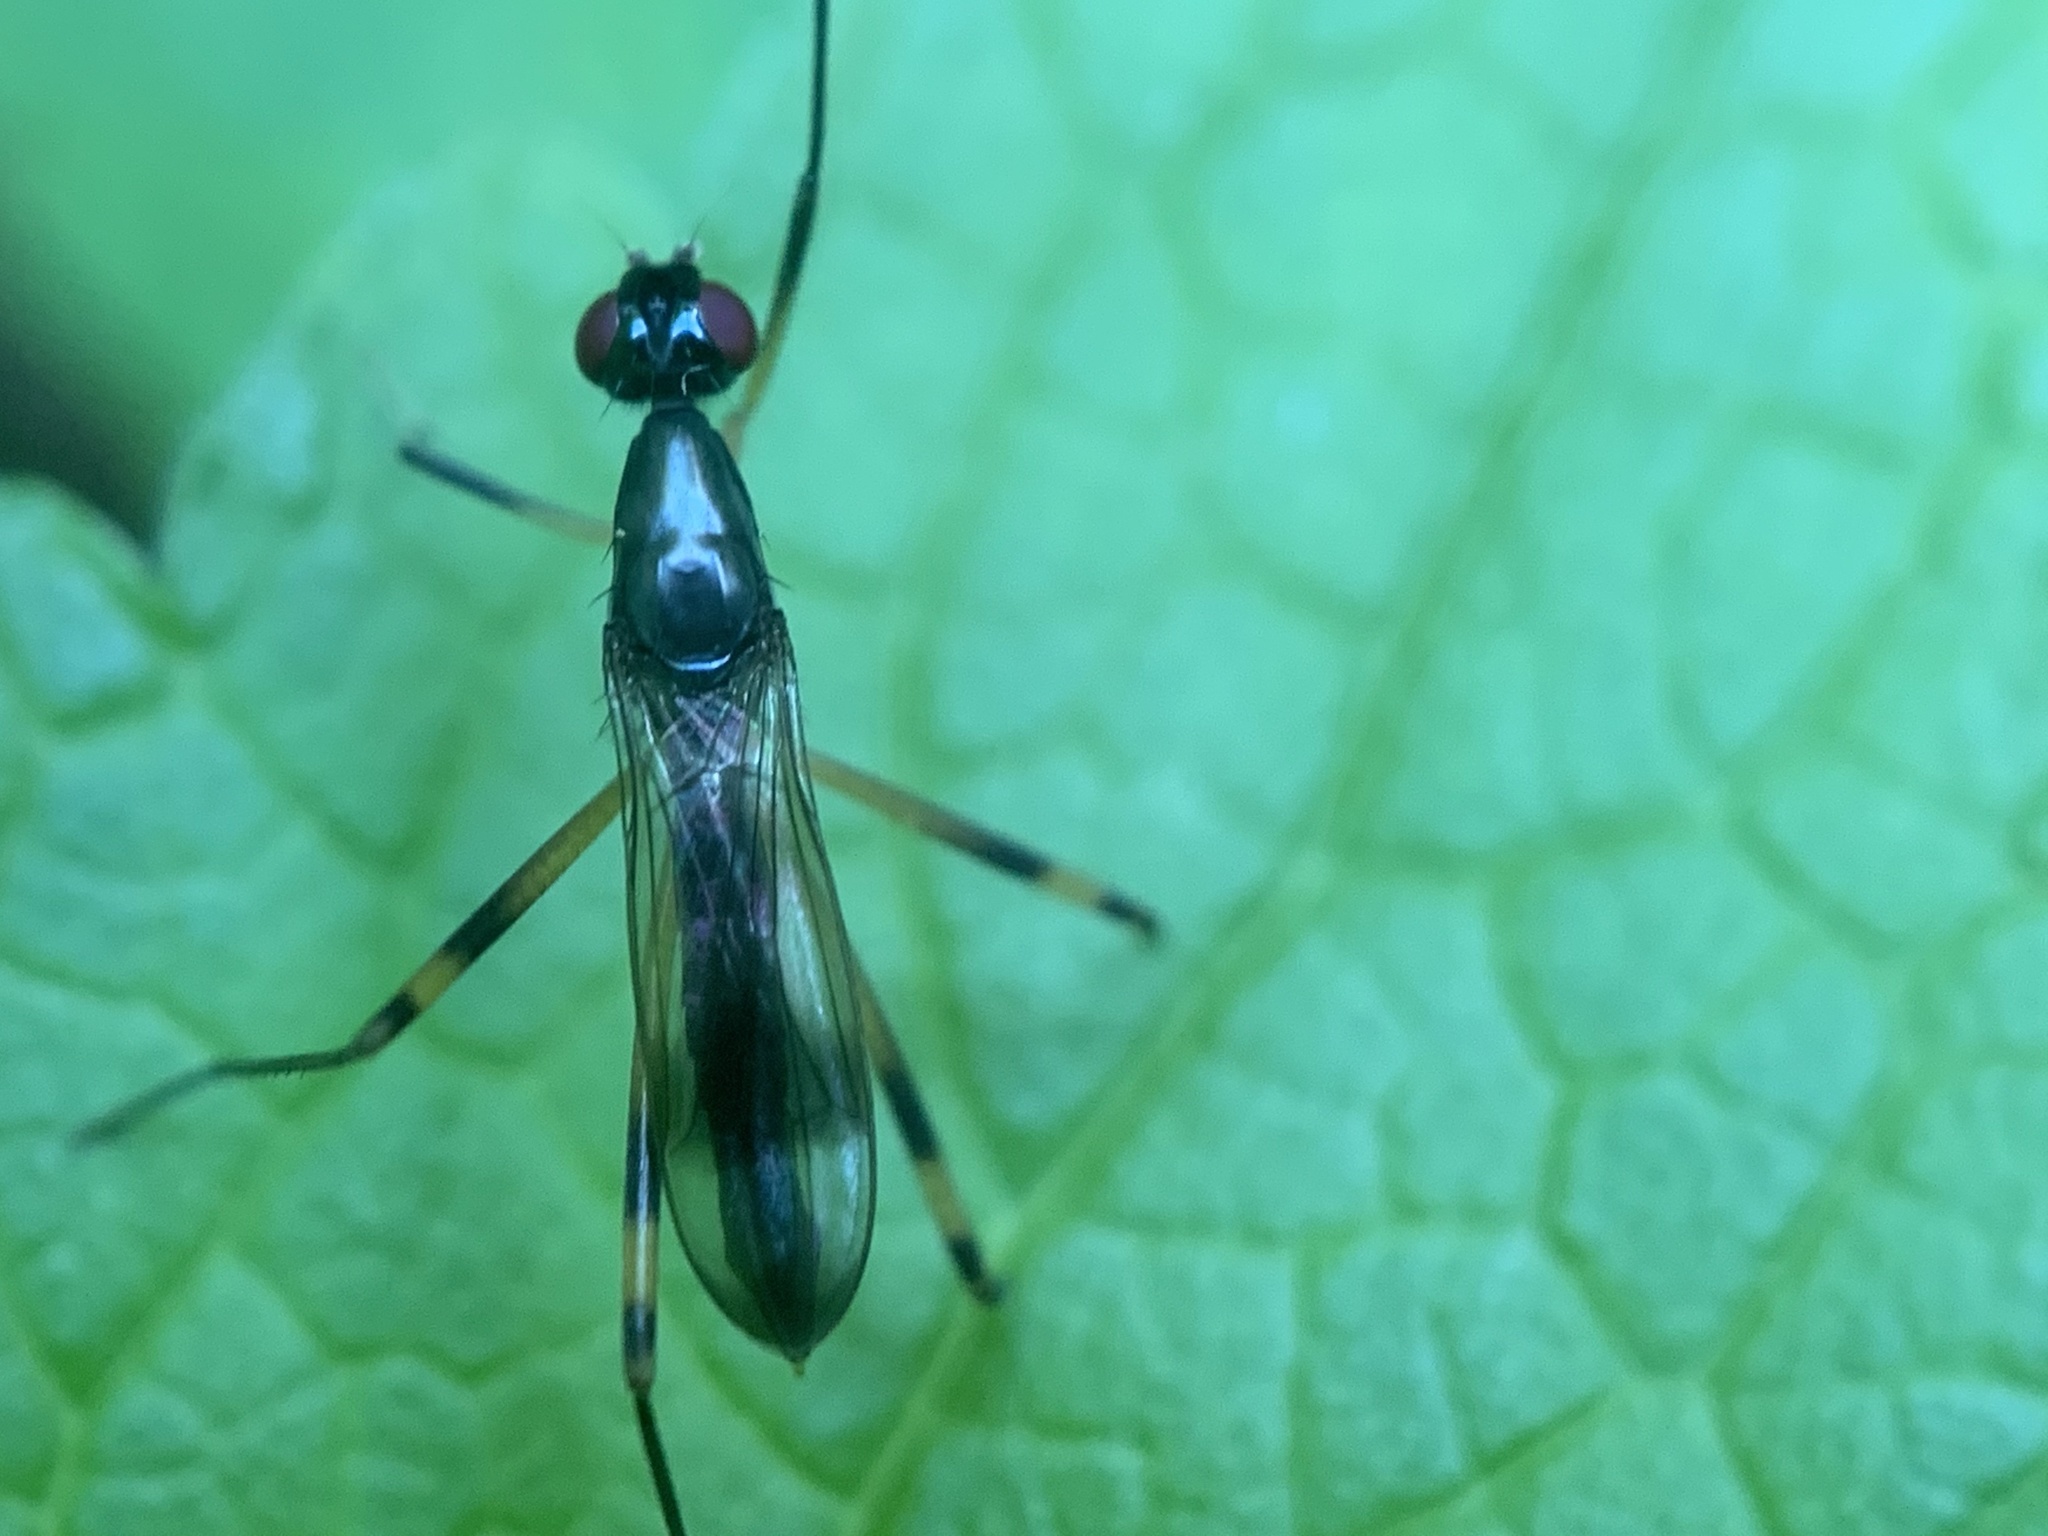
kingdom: Animalia
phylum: Arthropoda
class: Insecta
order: Diptera
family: Micropezidae
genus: Rainieria
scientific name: Rainieria antennaepes
